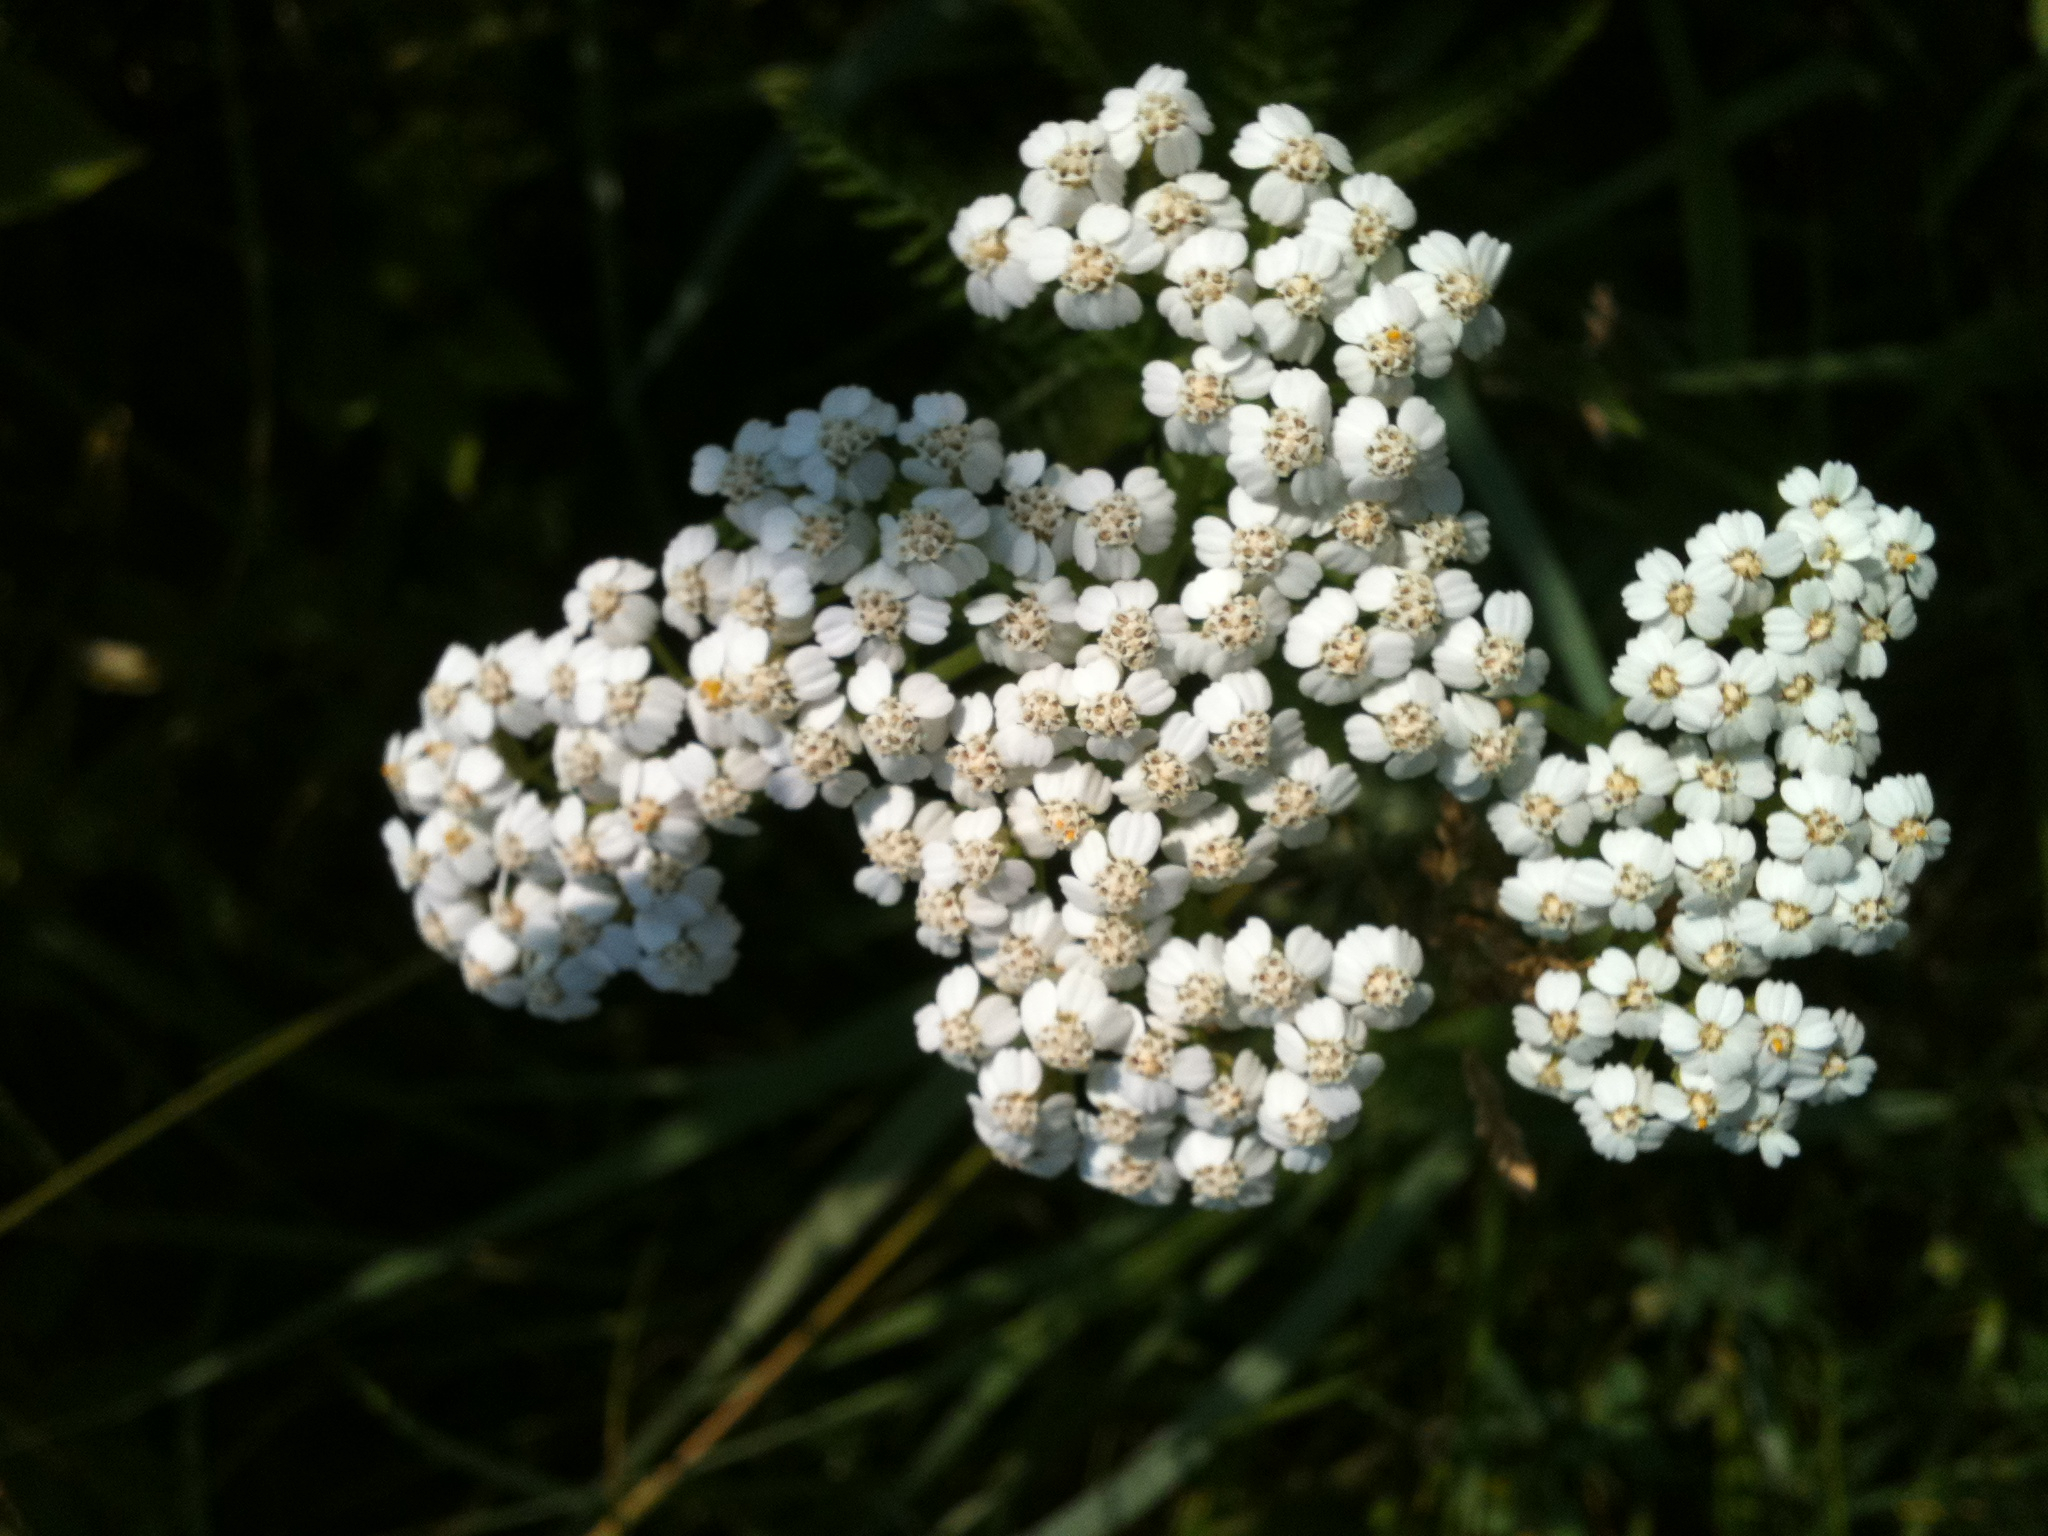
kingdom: Plantae
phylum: Tracheophyta
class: Magnoliopsida
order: Asterales
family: Asteraceae
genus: Achillea
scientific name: Achillea millefolium
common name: Yarrow
